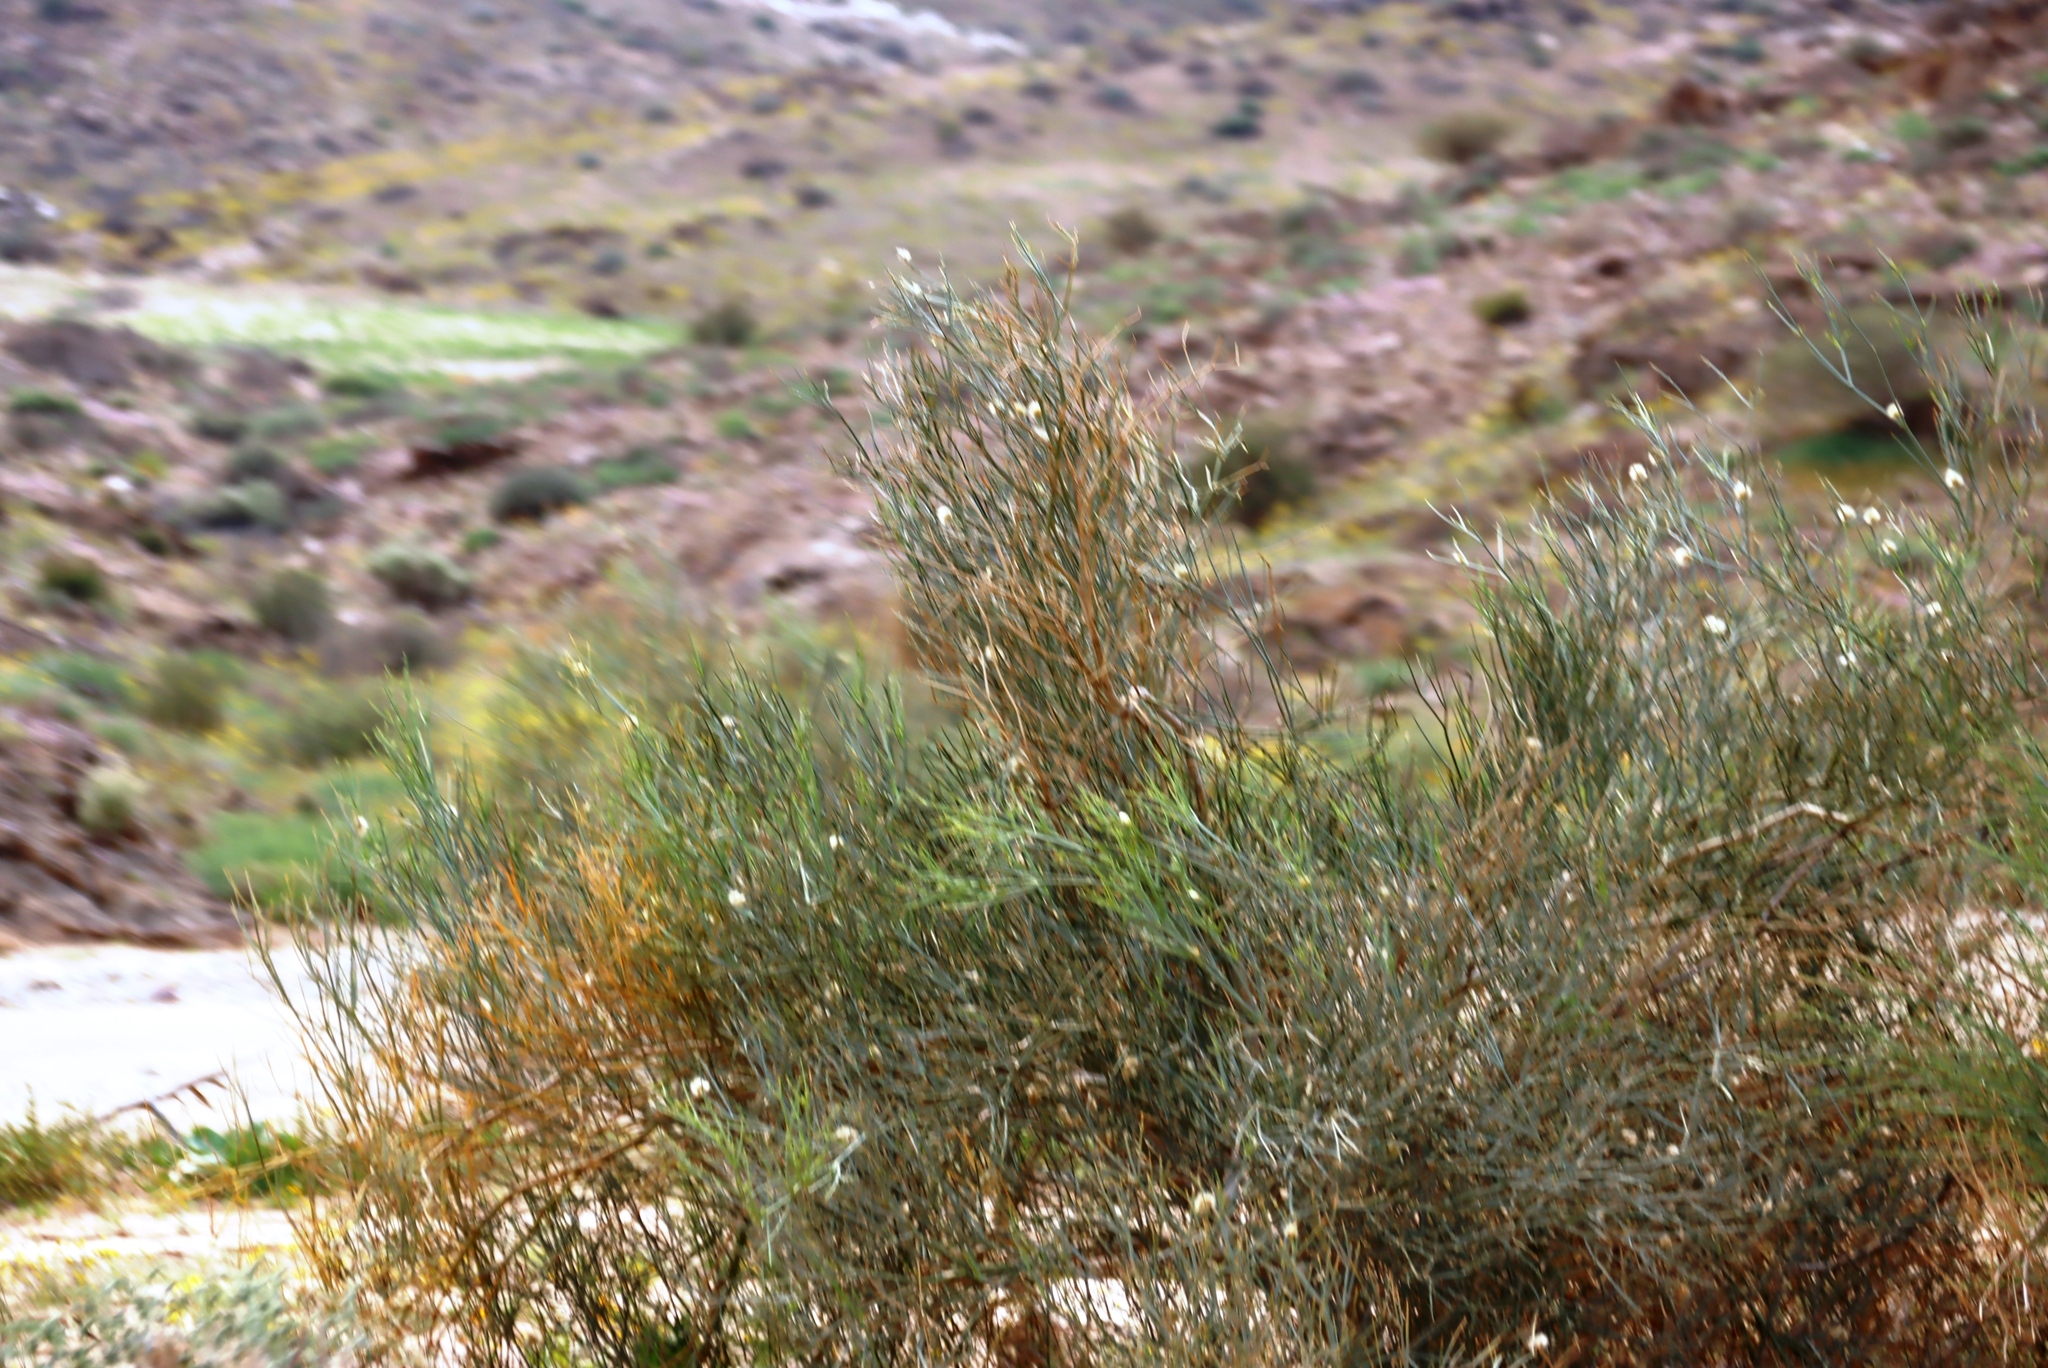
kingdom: Plantae
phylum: Tracheophyta
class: Magnoliopsida
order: Zygophyllales
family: Zygophyllaceae
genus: Sisyndite
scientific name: Sisyndite spartea
